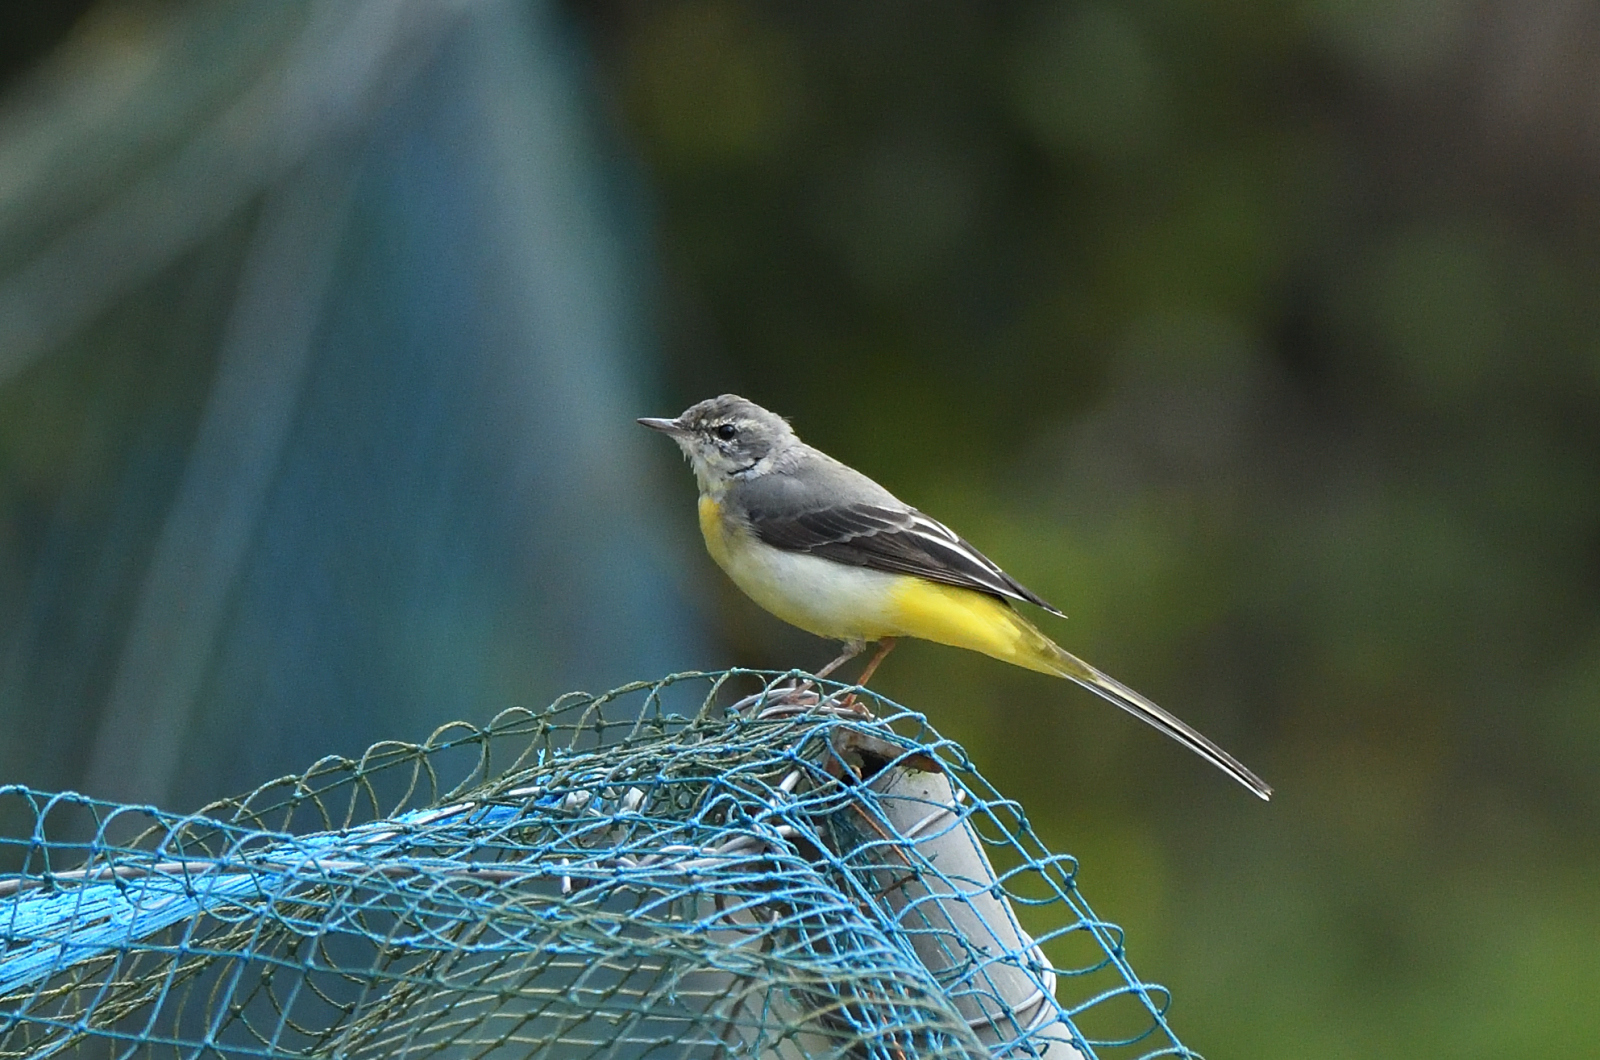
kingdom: Animalia
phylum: Chordata
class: Aves
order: Passeriformes
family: Motacillidae
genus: Motacilla
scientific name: Motacilla cinerea
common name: Grey wagtail
